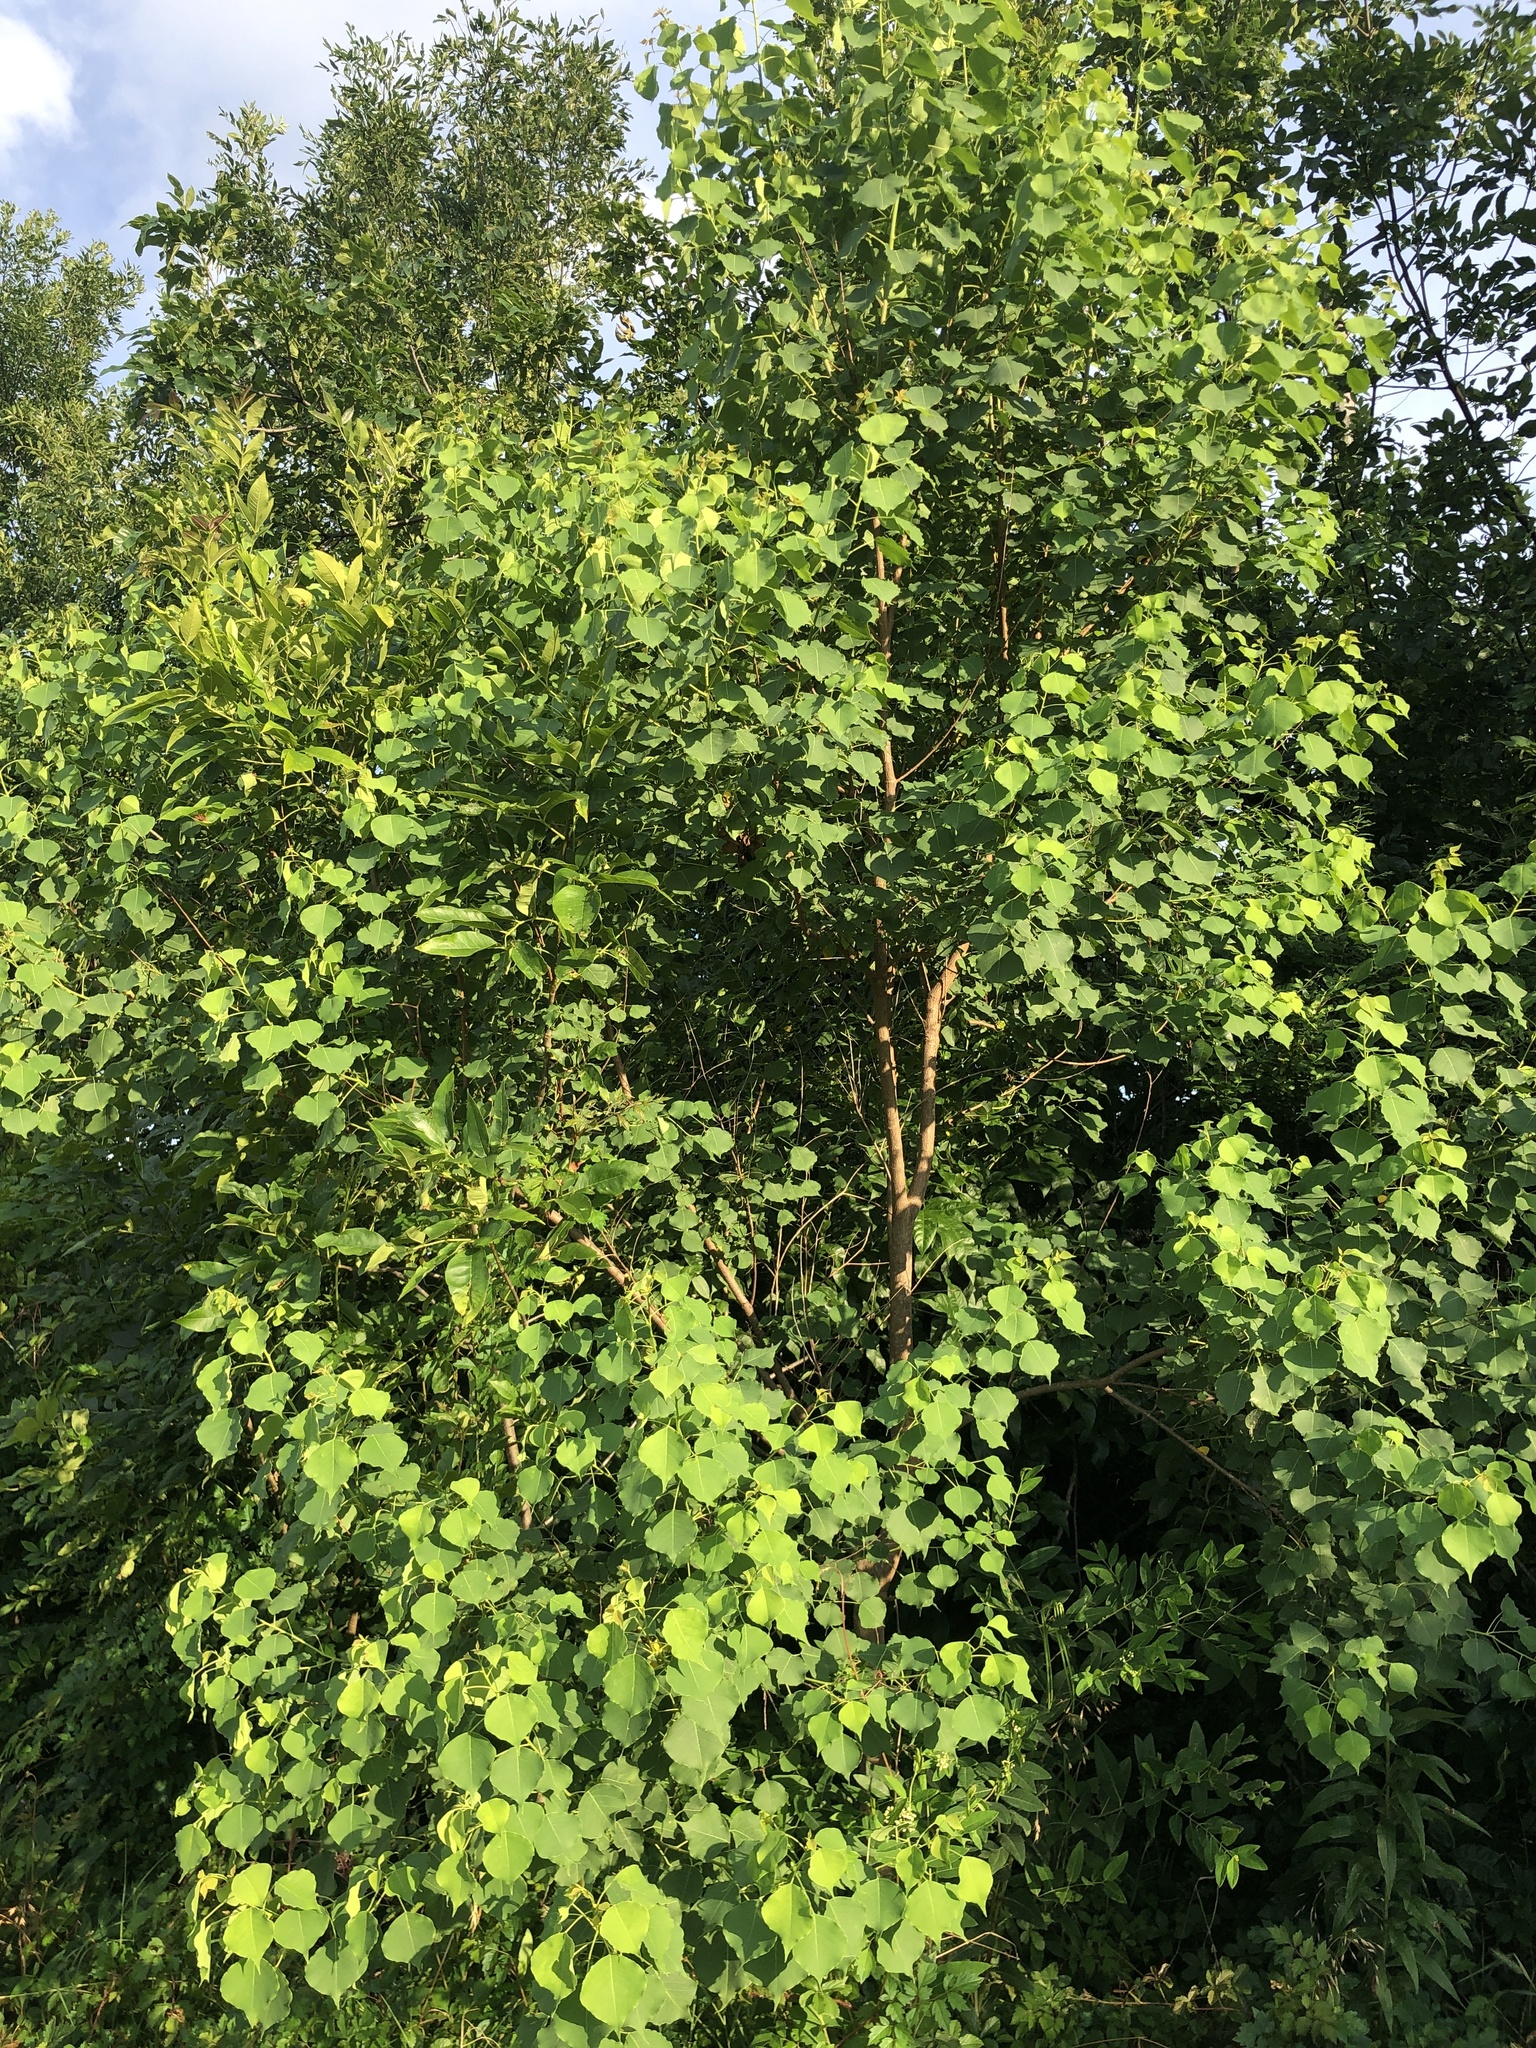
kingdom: Plantae
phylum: Tracheophyta
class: Magnoliopsida
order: Malpighiales
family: Euphorbiaceae
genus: Triadica
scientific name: Triadica sebifera
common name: Chinese tallow
